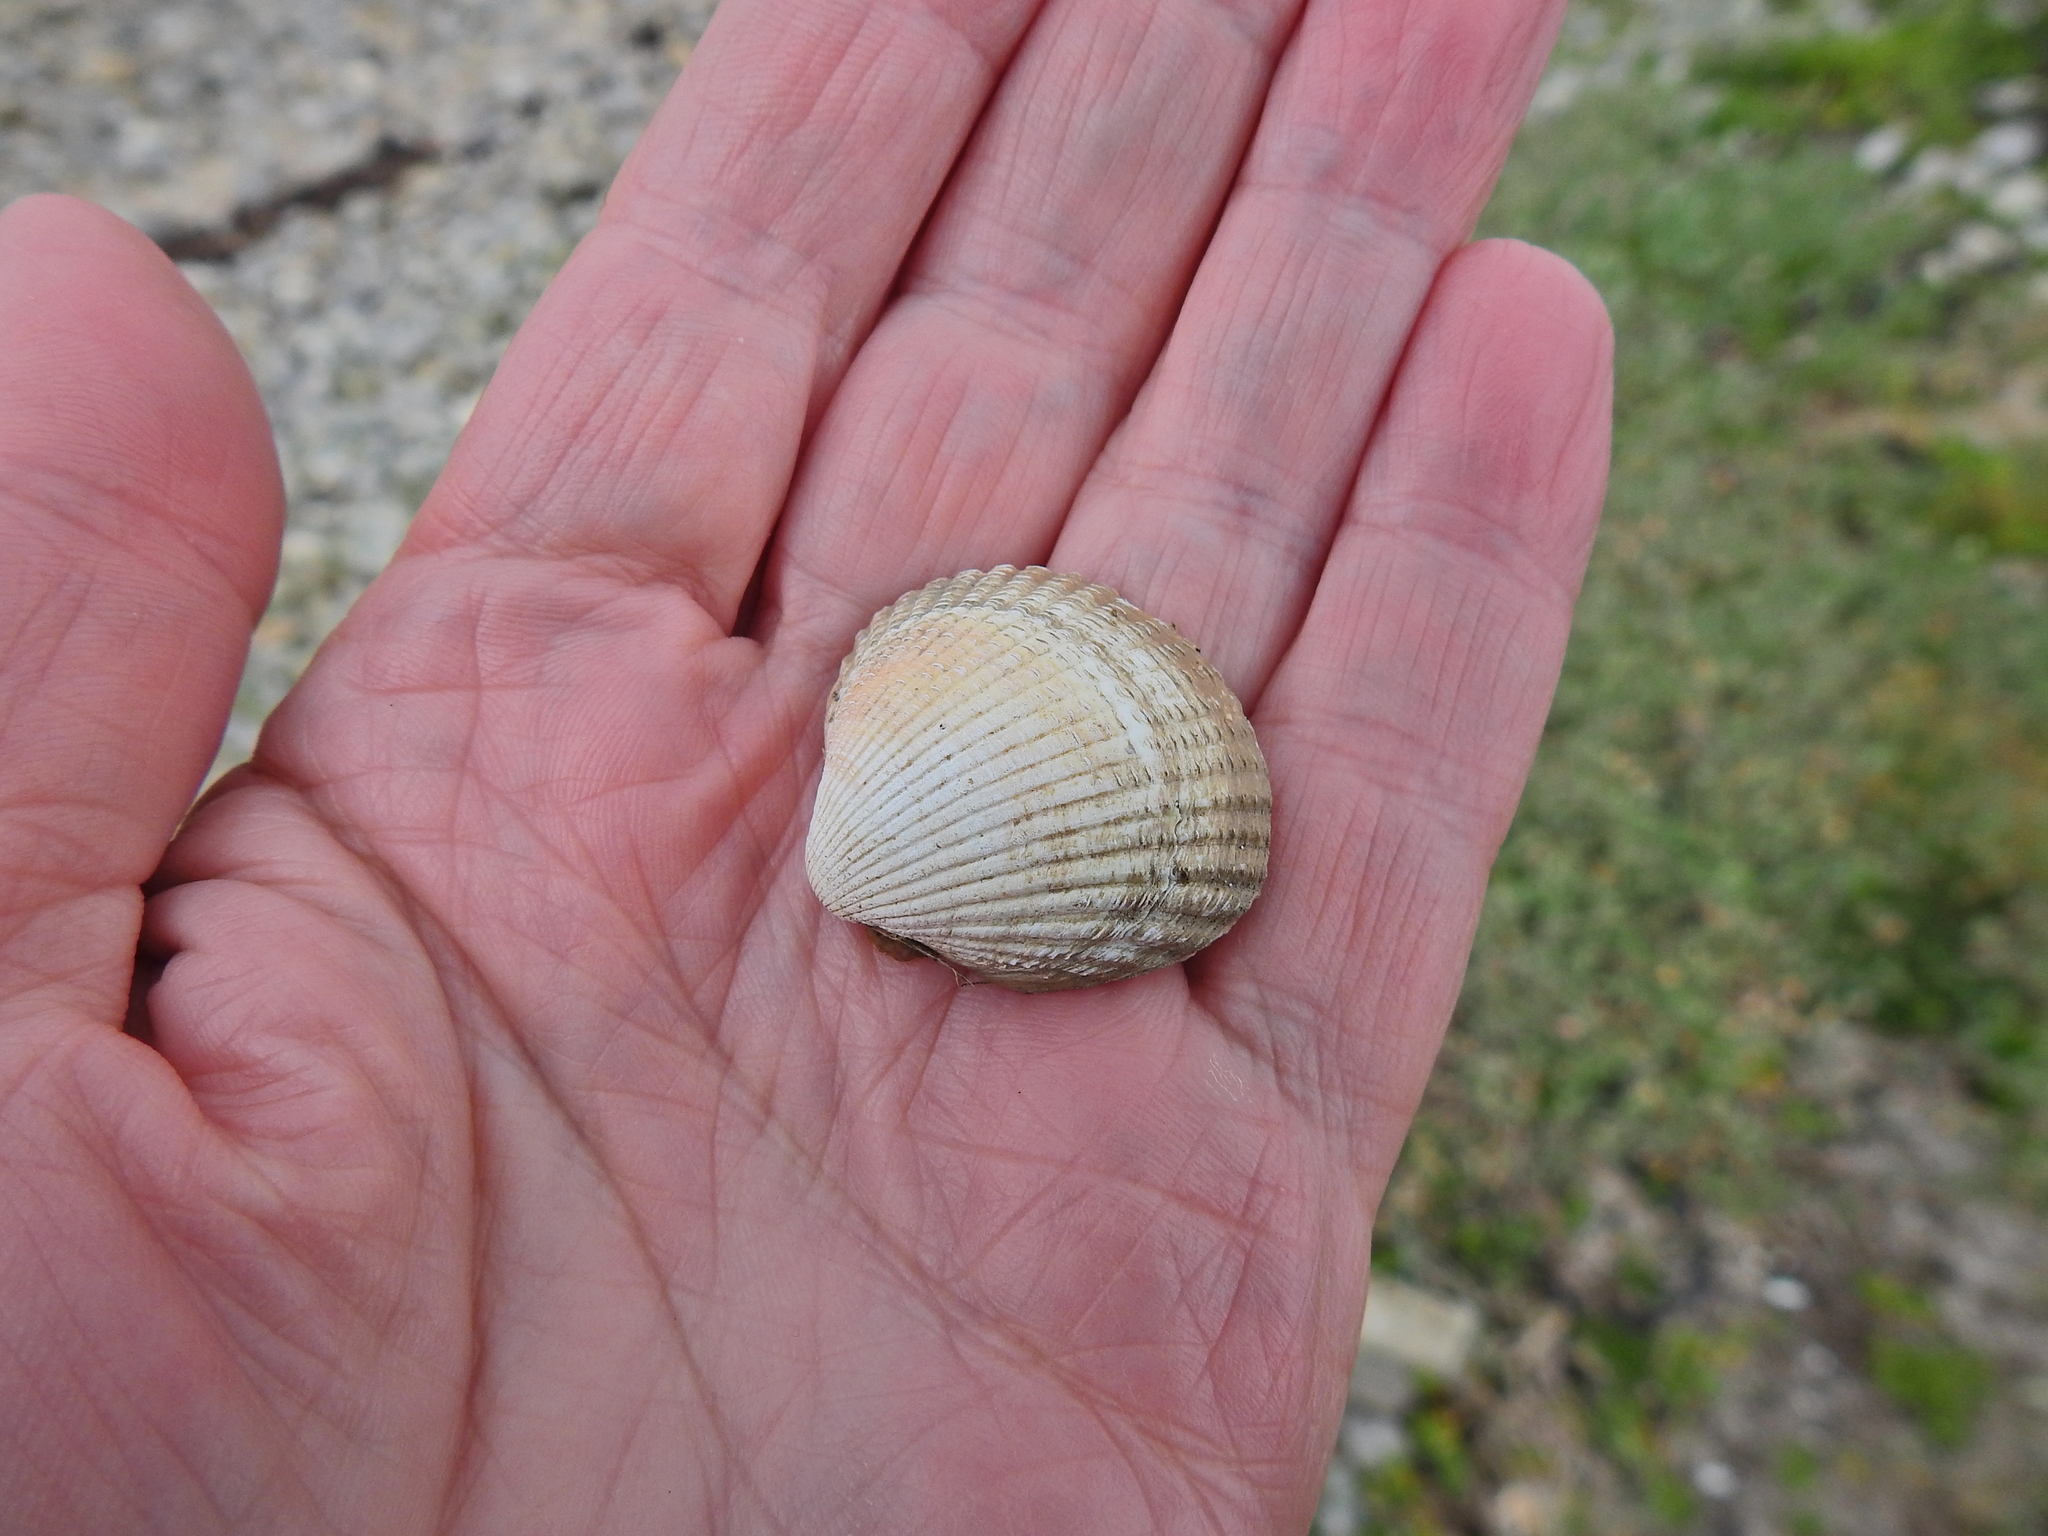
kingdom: Animalia
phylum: Mollusca
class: Bivalvia
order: Cardiida
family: Cardiidae
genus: Cerastoderma
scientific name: Cerastoderma edule
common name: Common cockle
